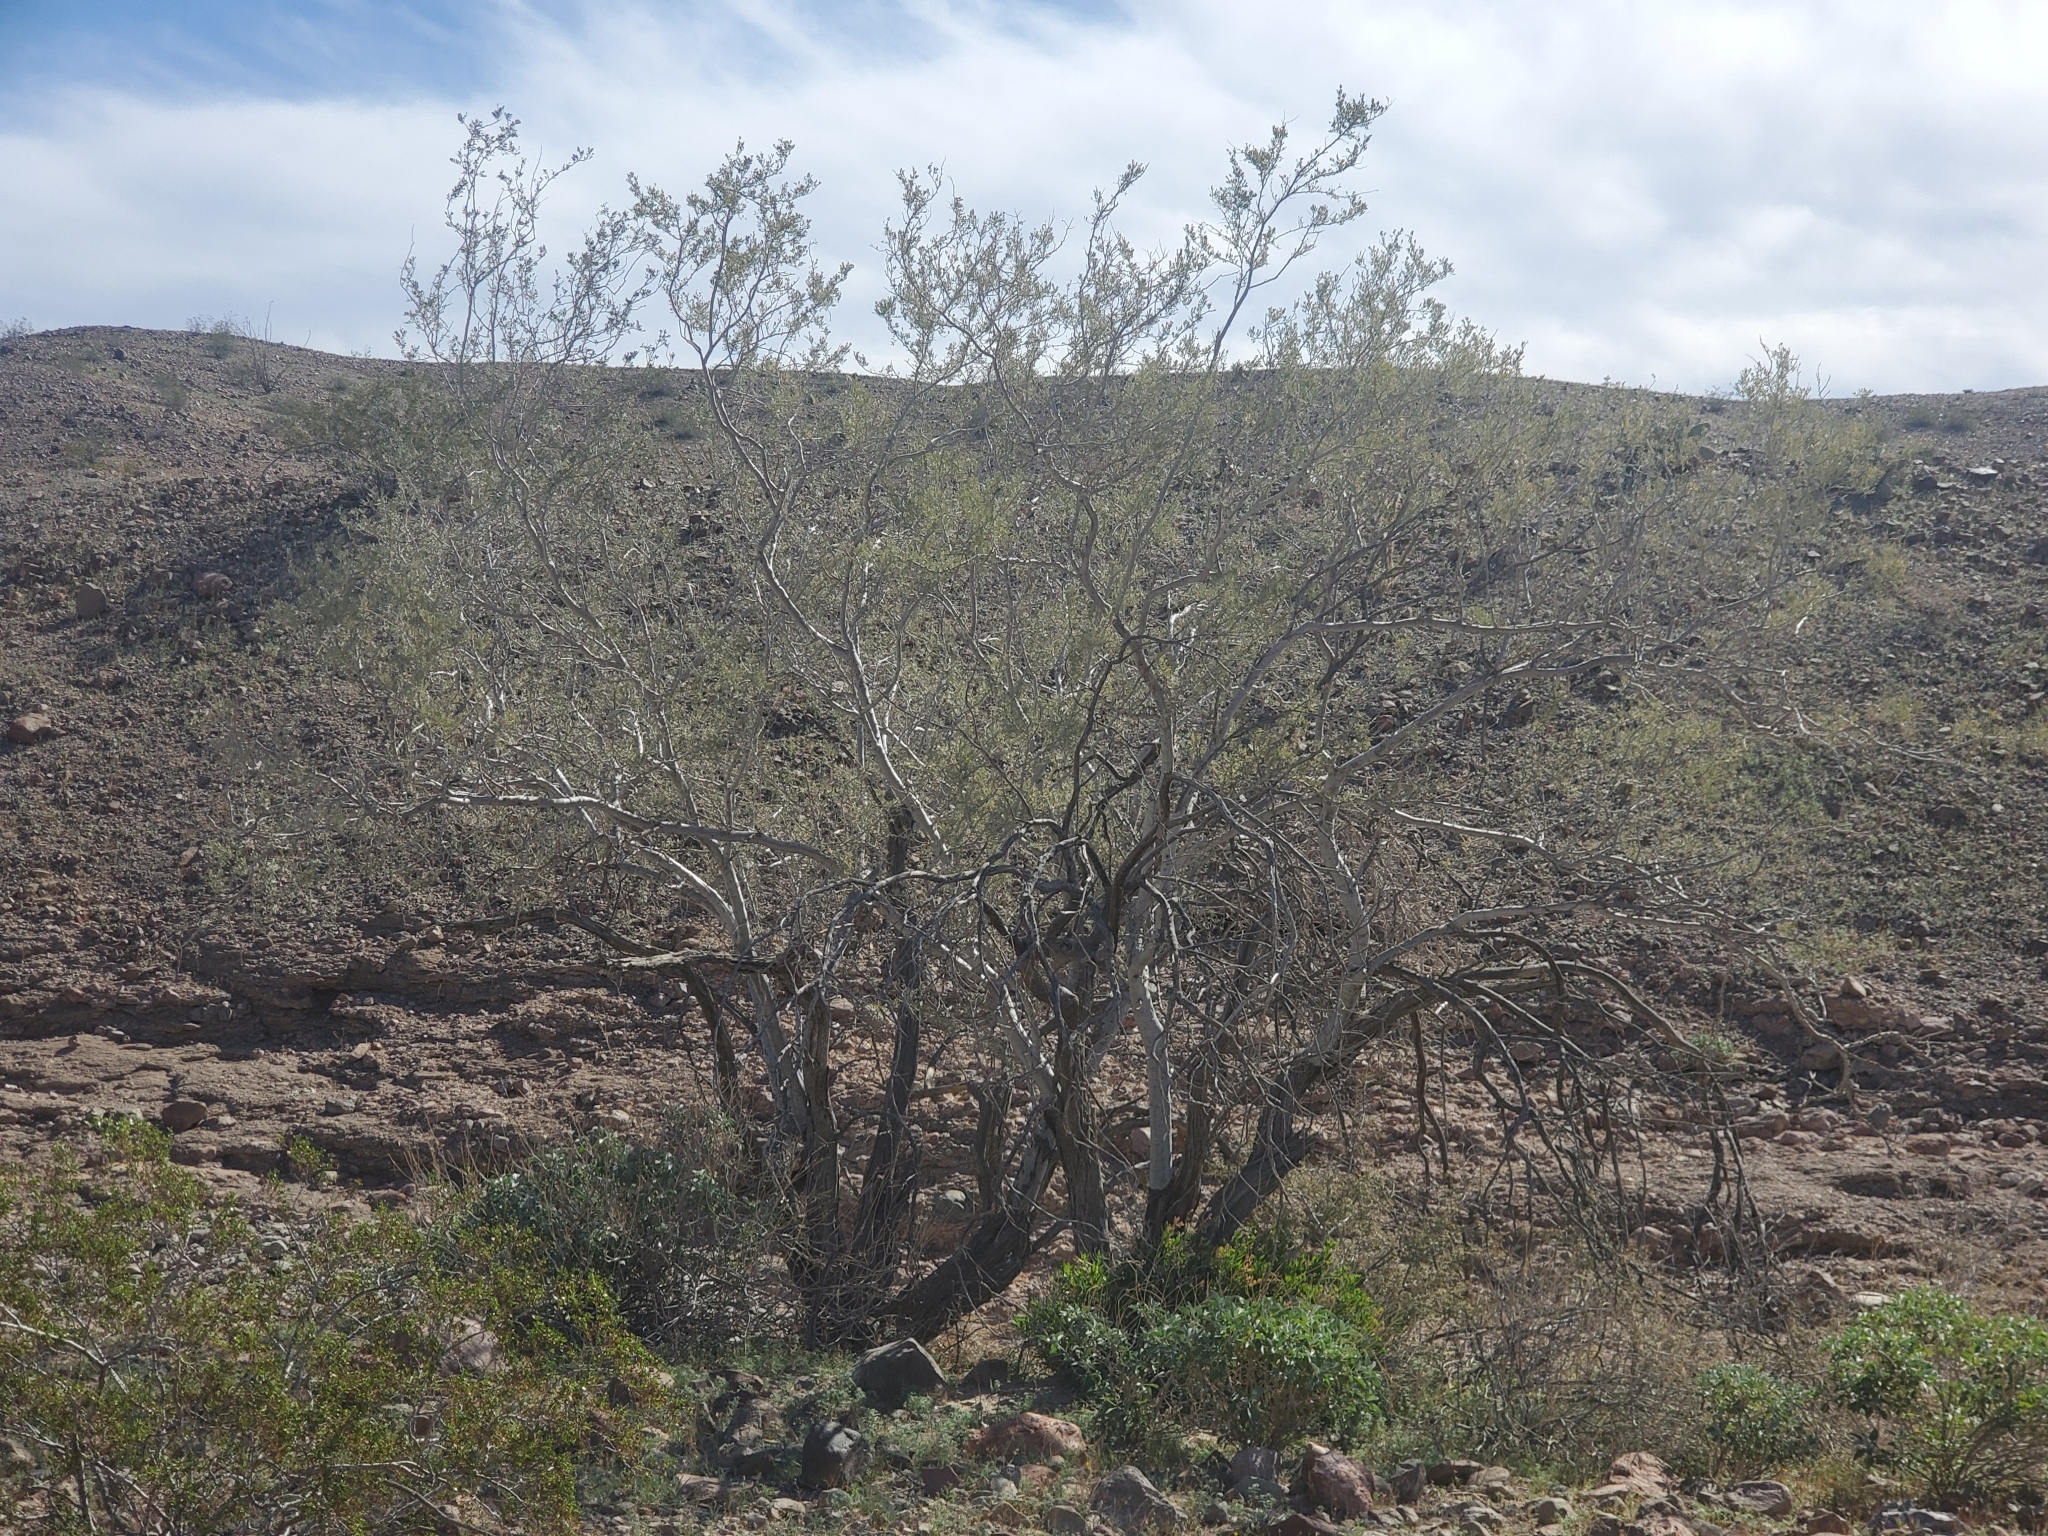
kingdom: Plantae
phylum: Tracheophyta
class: Magnoliopsida
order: Fabales
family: Fabaceae
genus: Olneya
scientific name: Olneya tesota
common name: Desert ironwood
